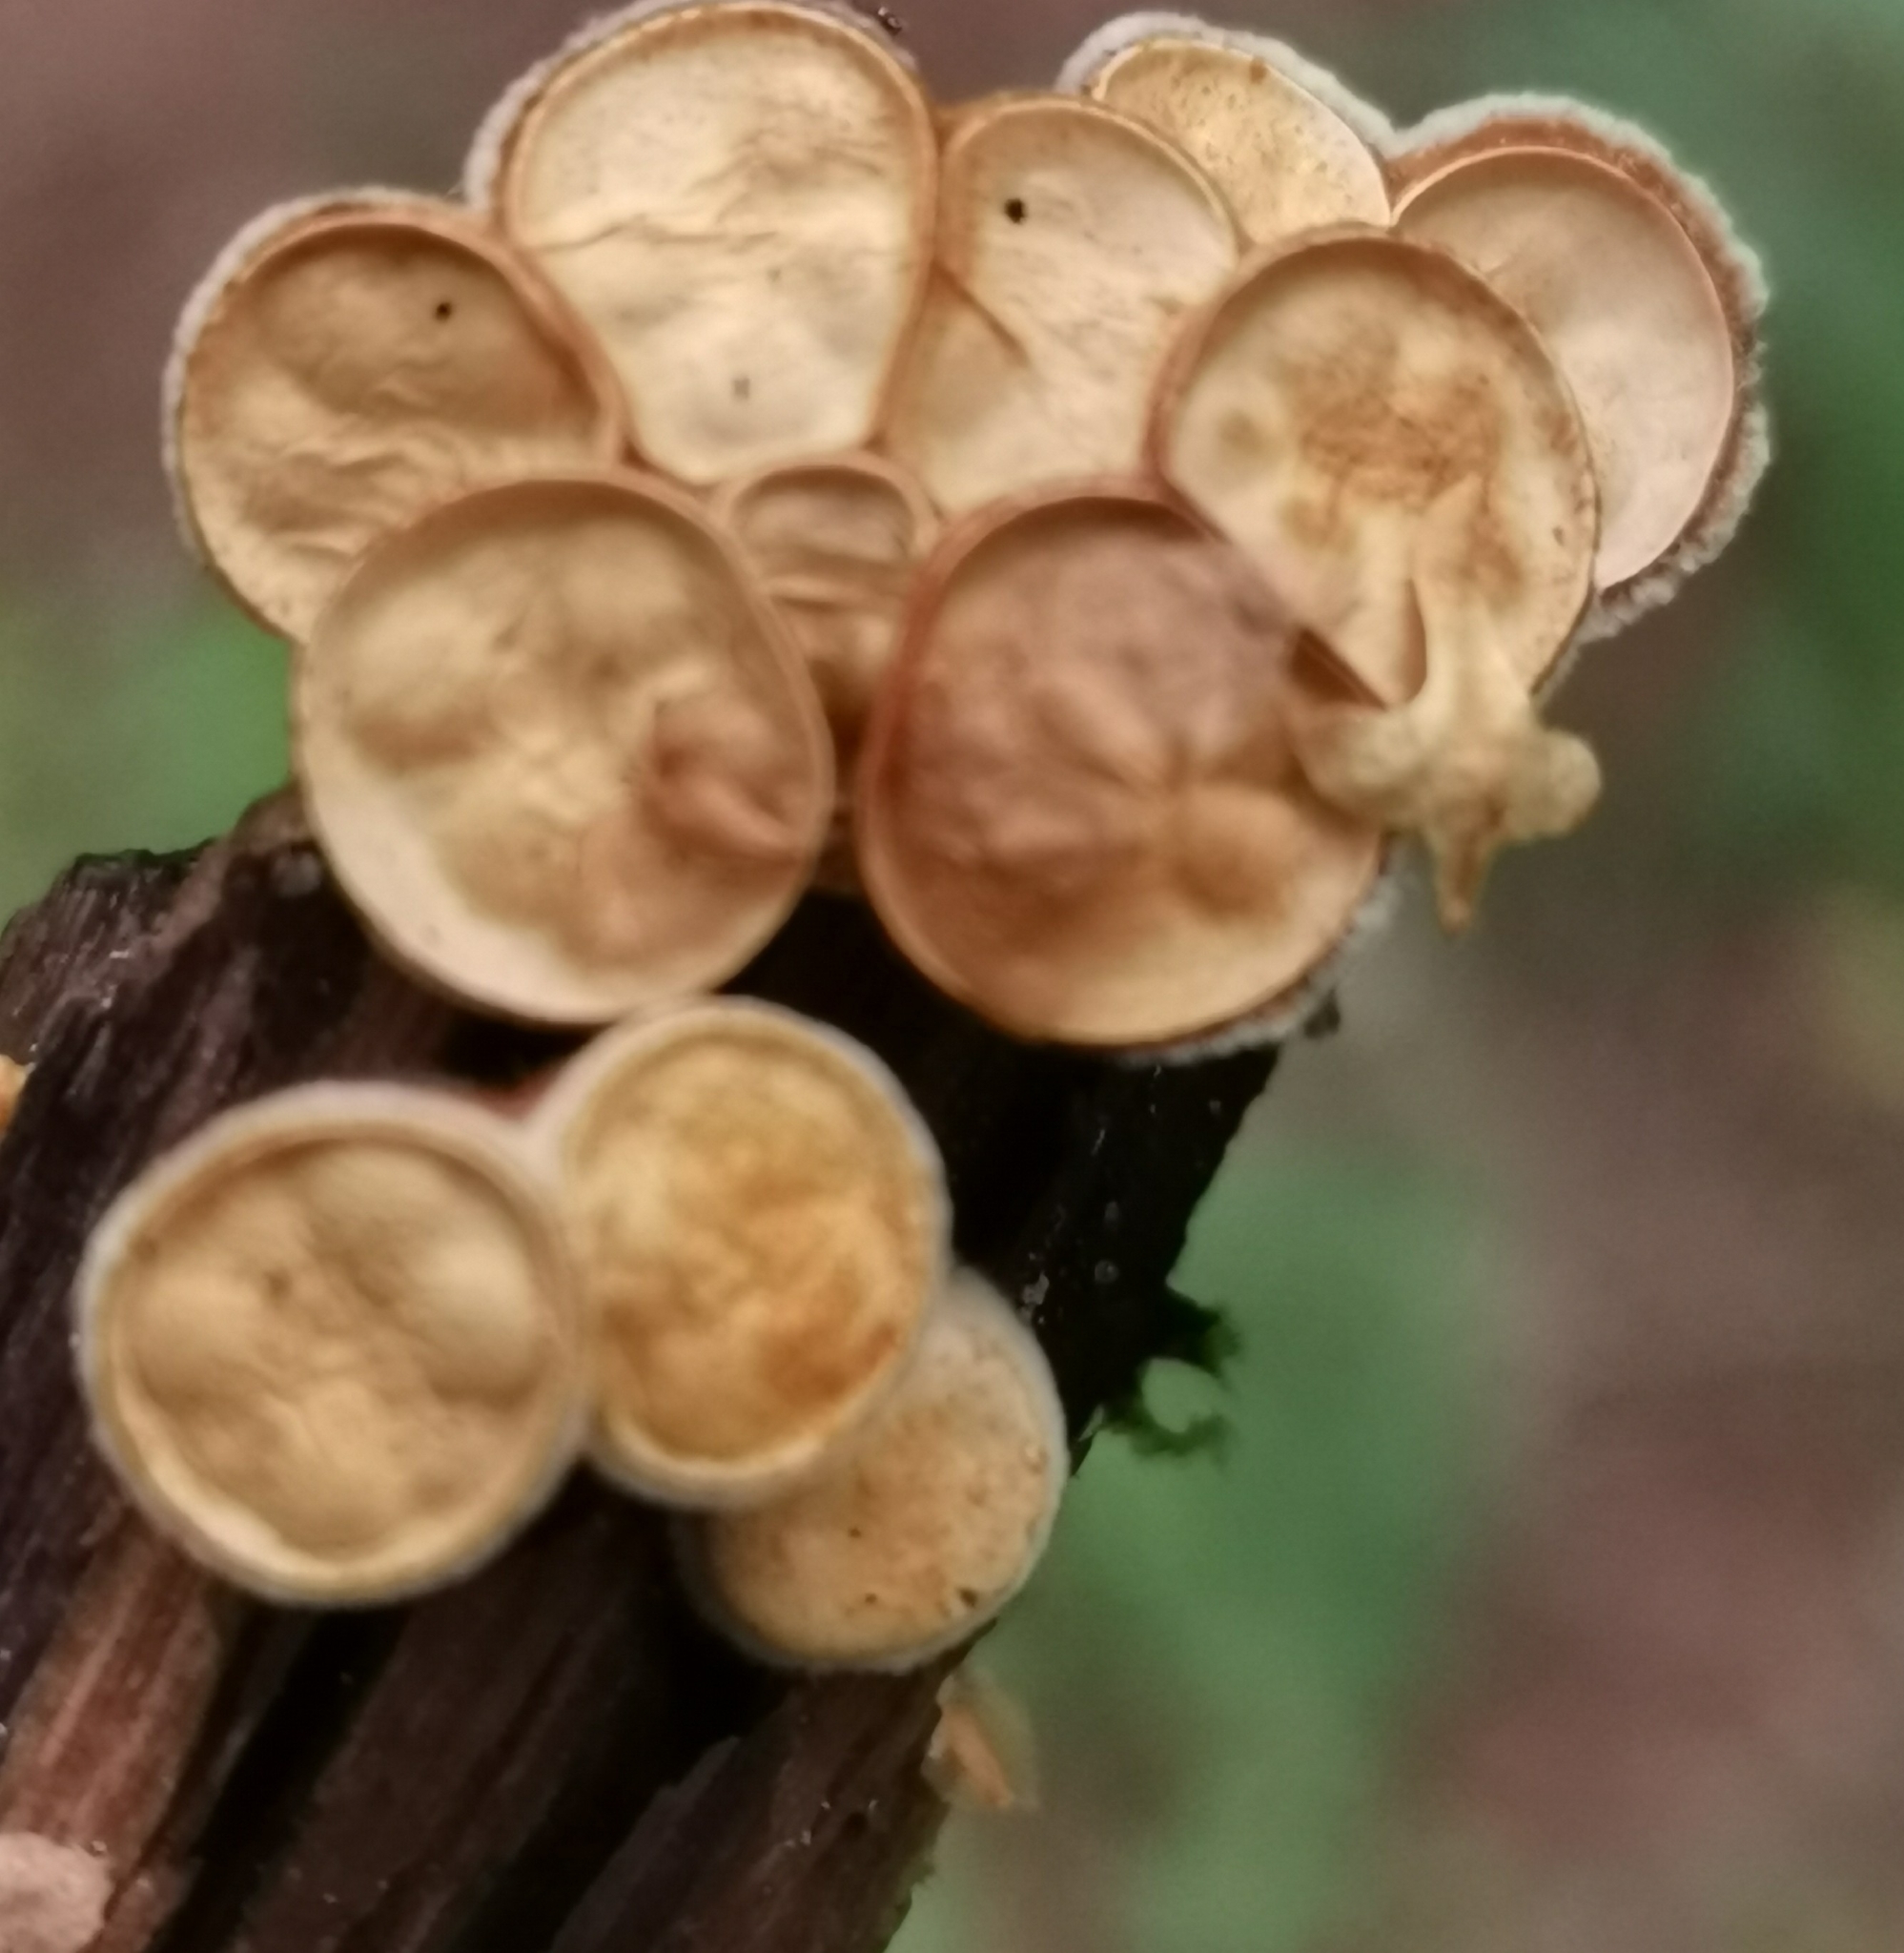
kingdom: Fungi
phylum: Basidiomycota
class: Agaricomycetes
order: Agaricales
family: Nidulariaceae
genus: Crucibulum
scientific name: Crucibulum laeve
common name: Common bird's nest
